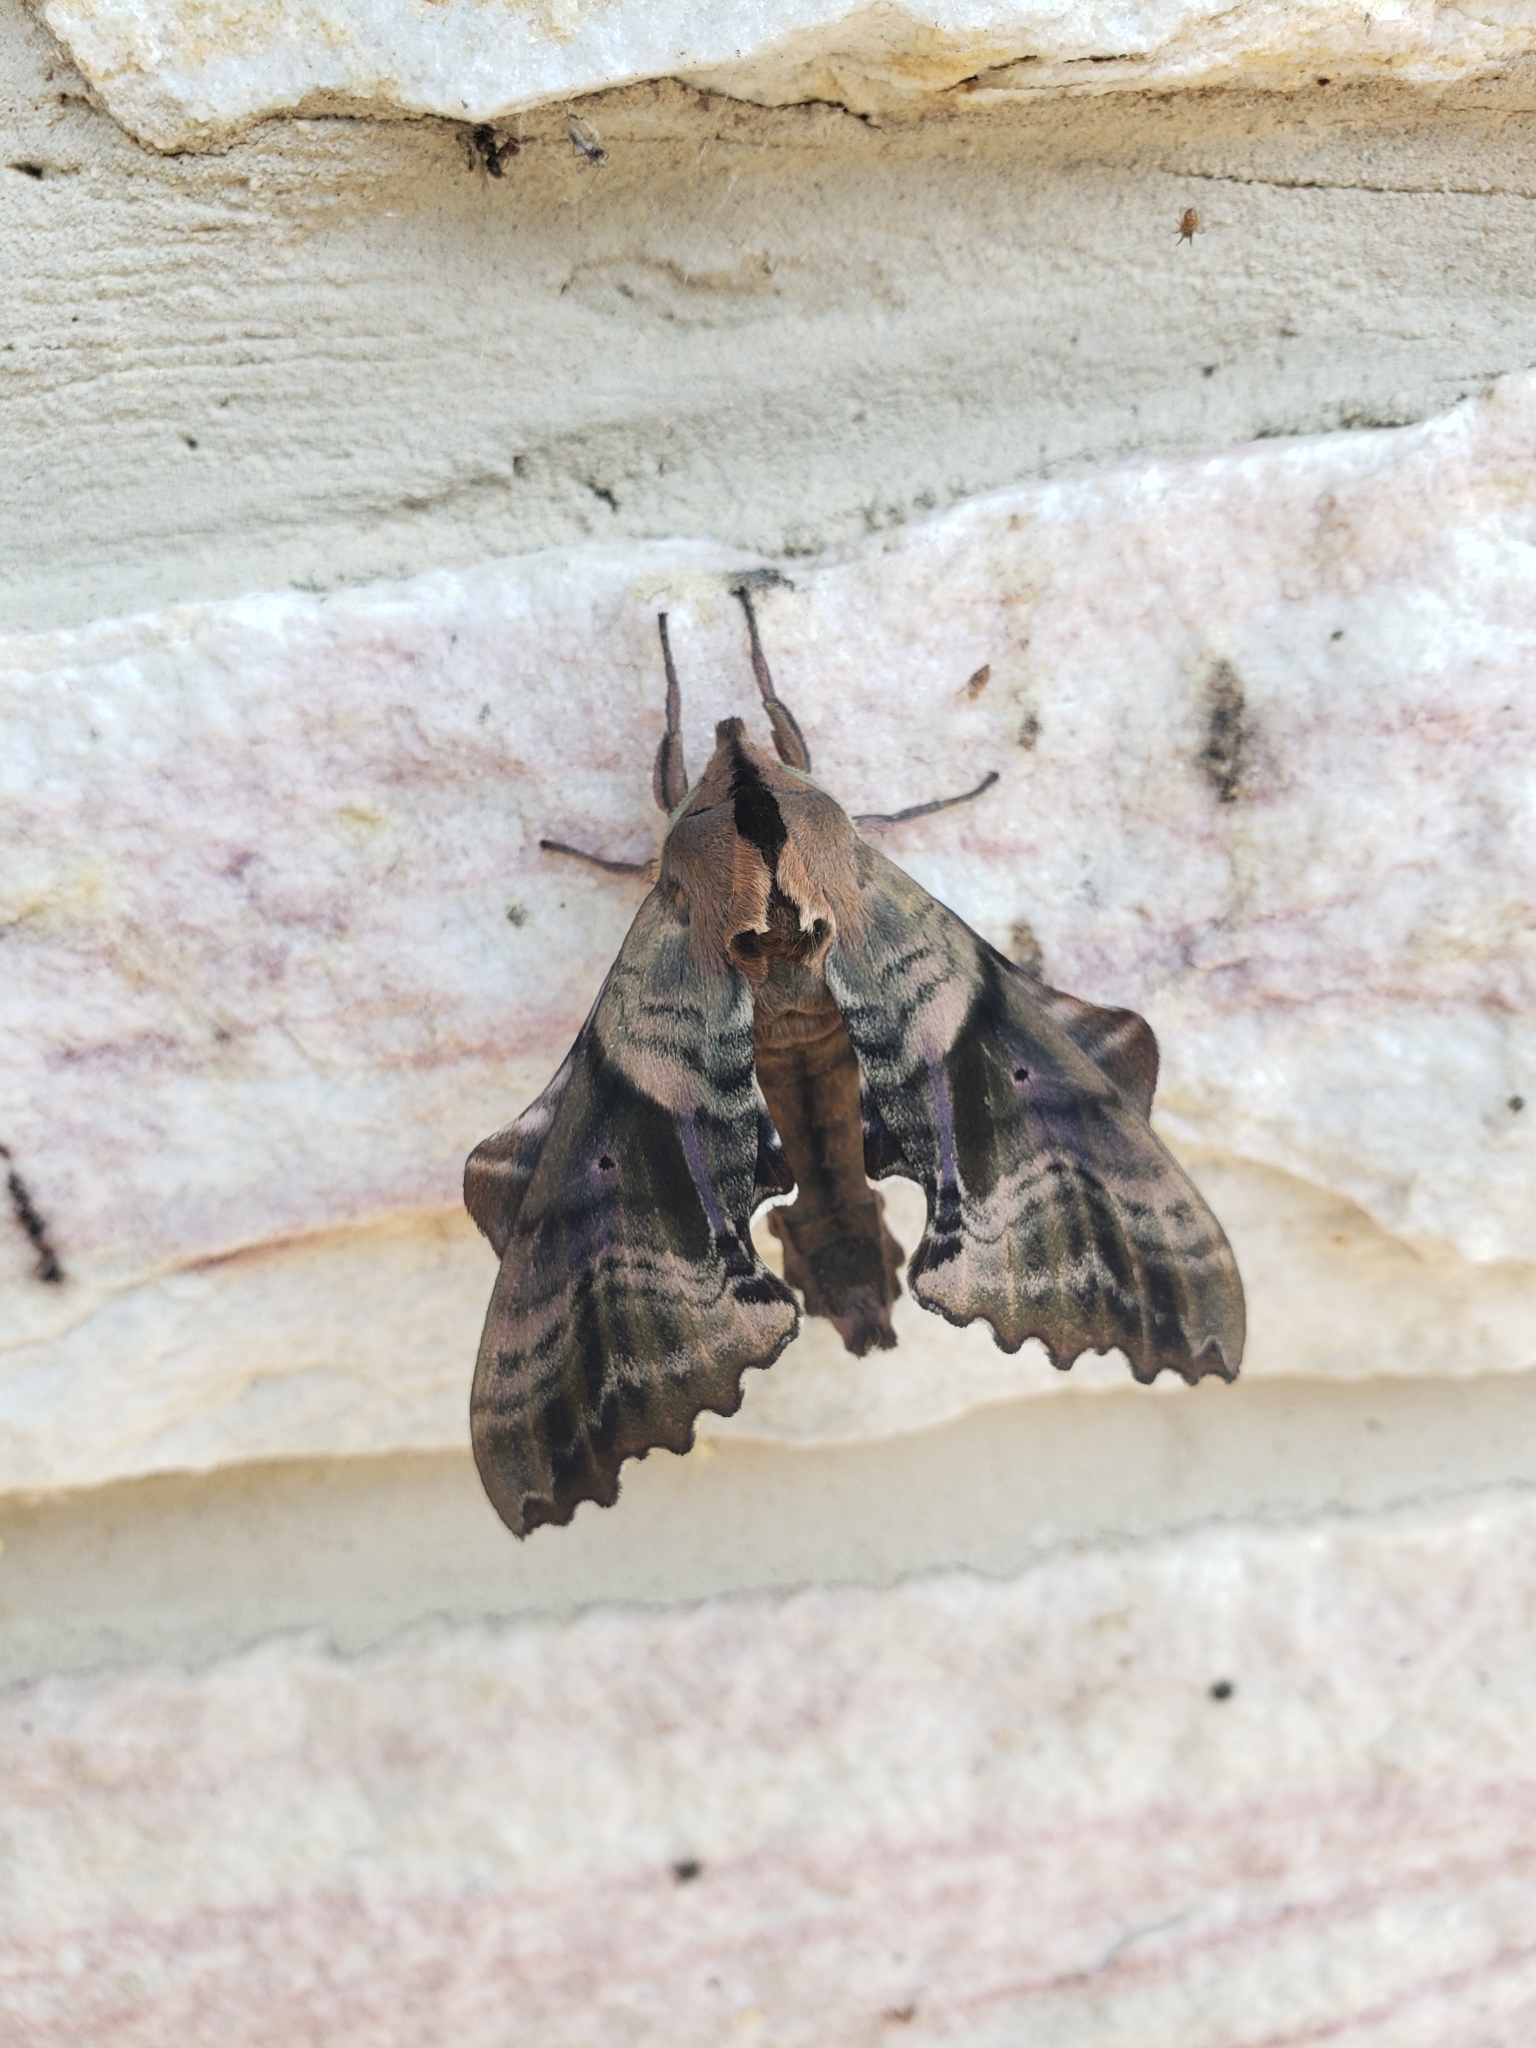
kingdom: Animalia
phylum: Arthropoda
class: Insecta
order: Lepidoptera
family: Sphingidae
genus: Paonias
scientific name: Paonias excaecata
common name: Blind-eyed sphinx
